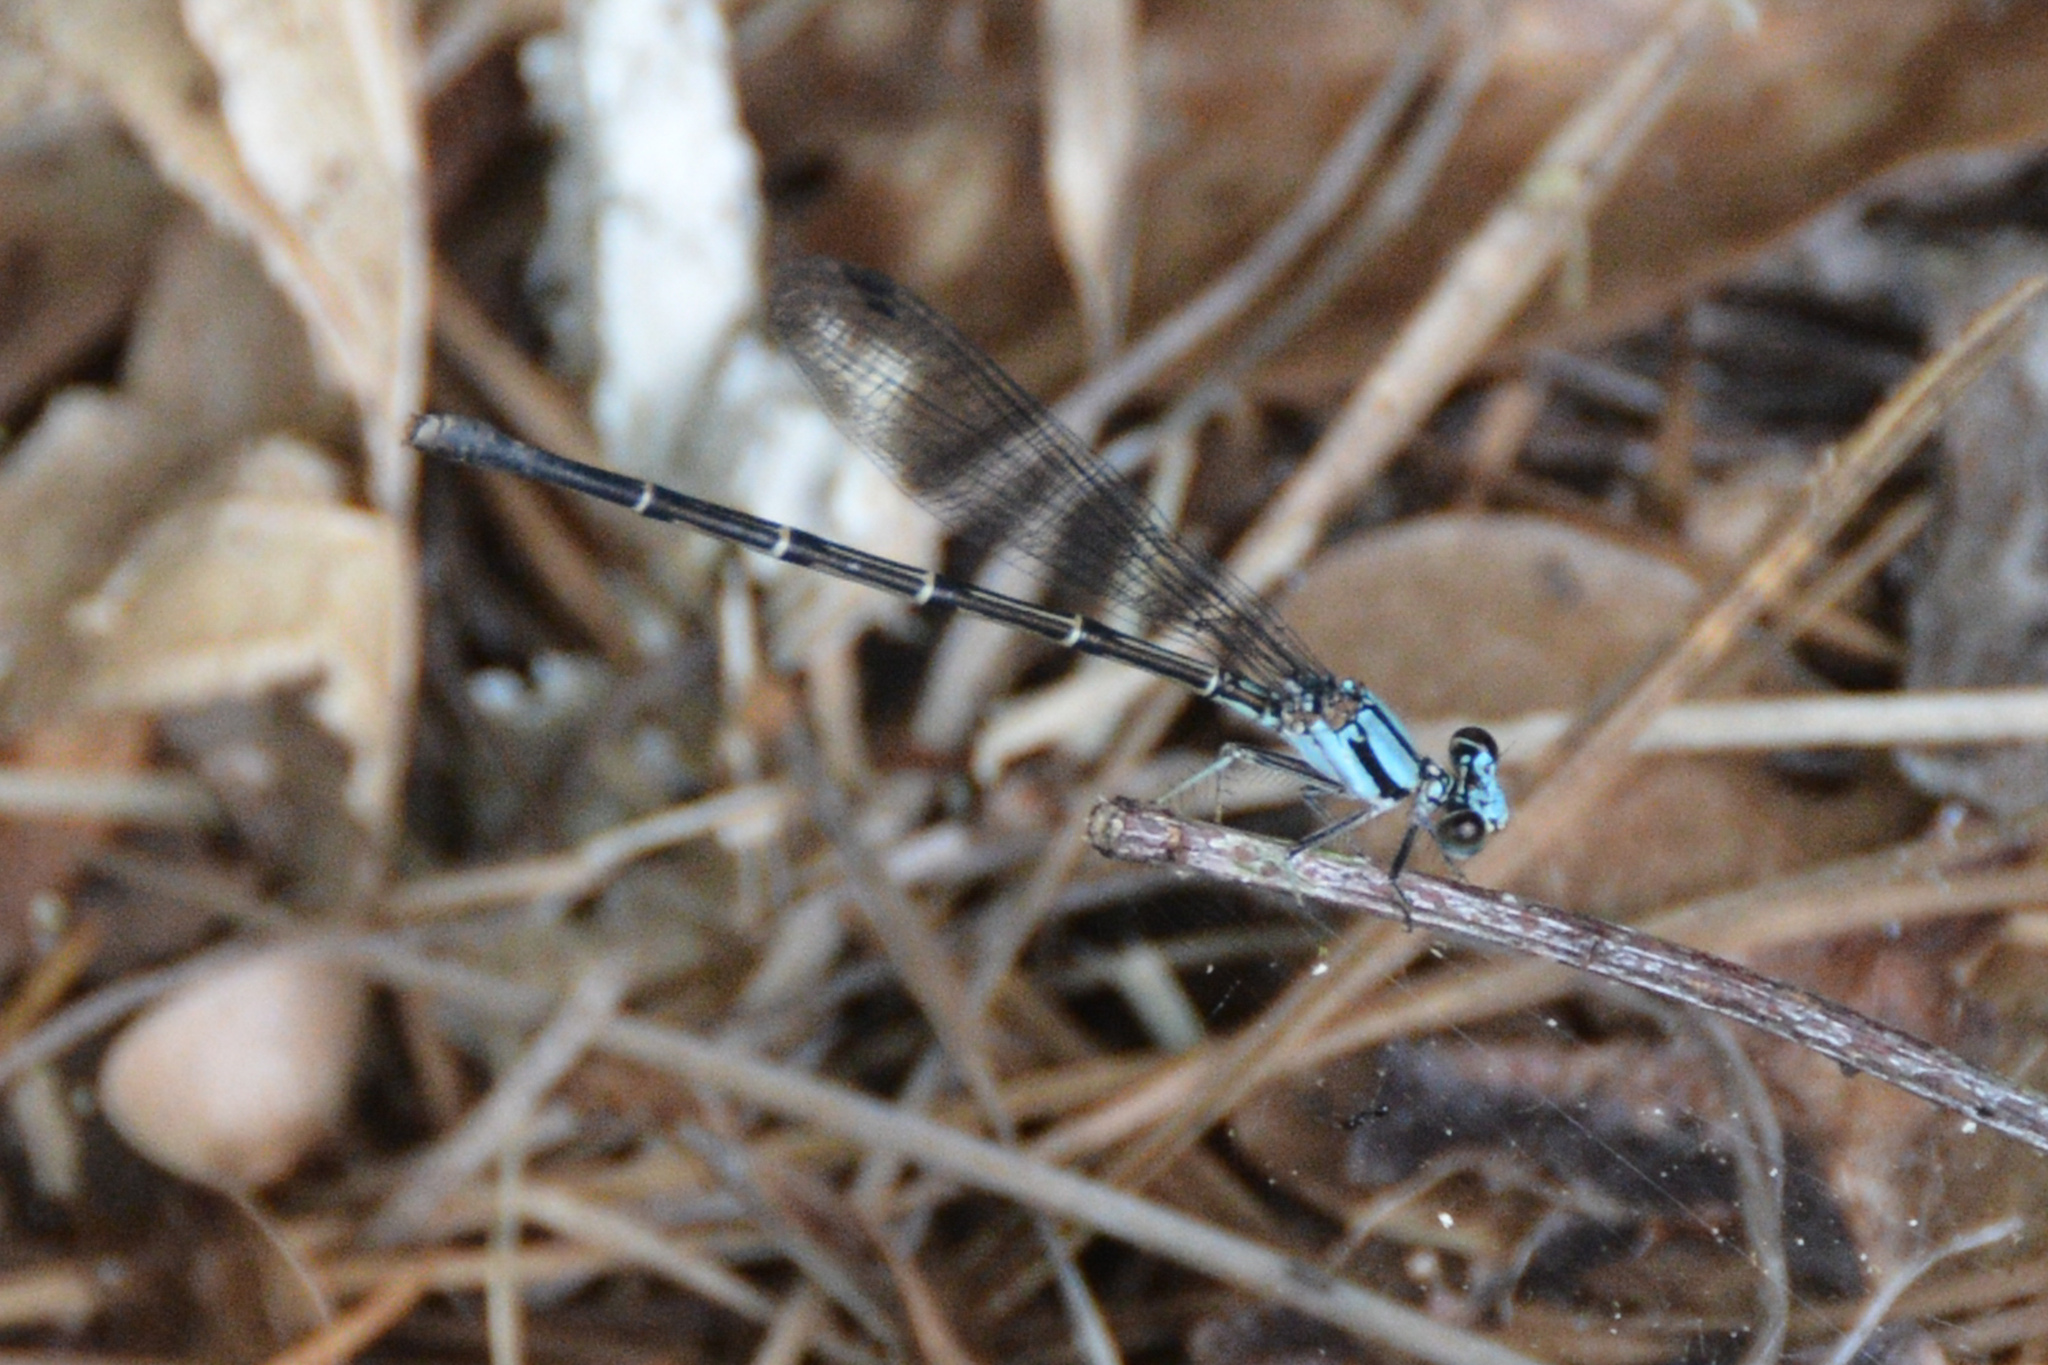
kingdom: Animalia
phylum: Arthropoda
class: Insecta
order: Odonata
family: Coenagrionidae
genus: Argia
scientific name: Argia tibialis
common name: Blue-tipped dancer
